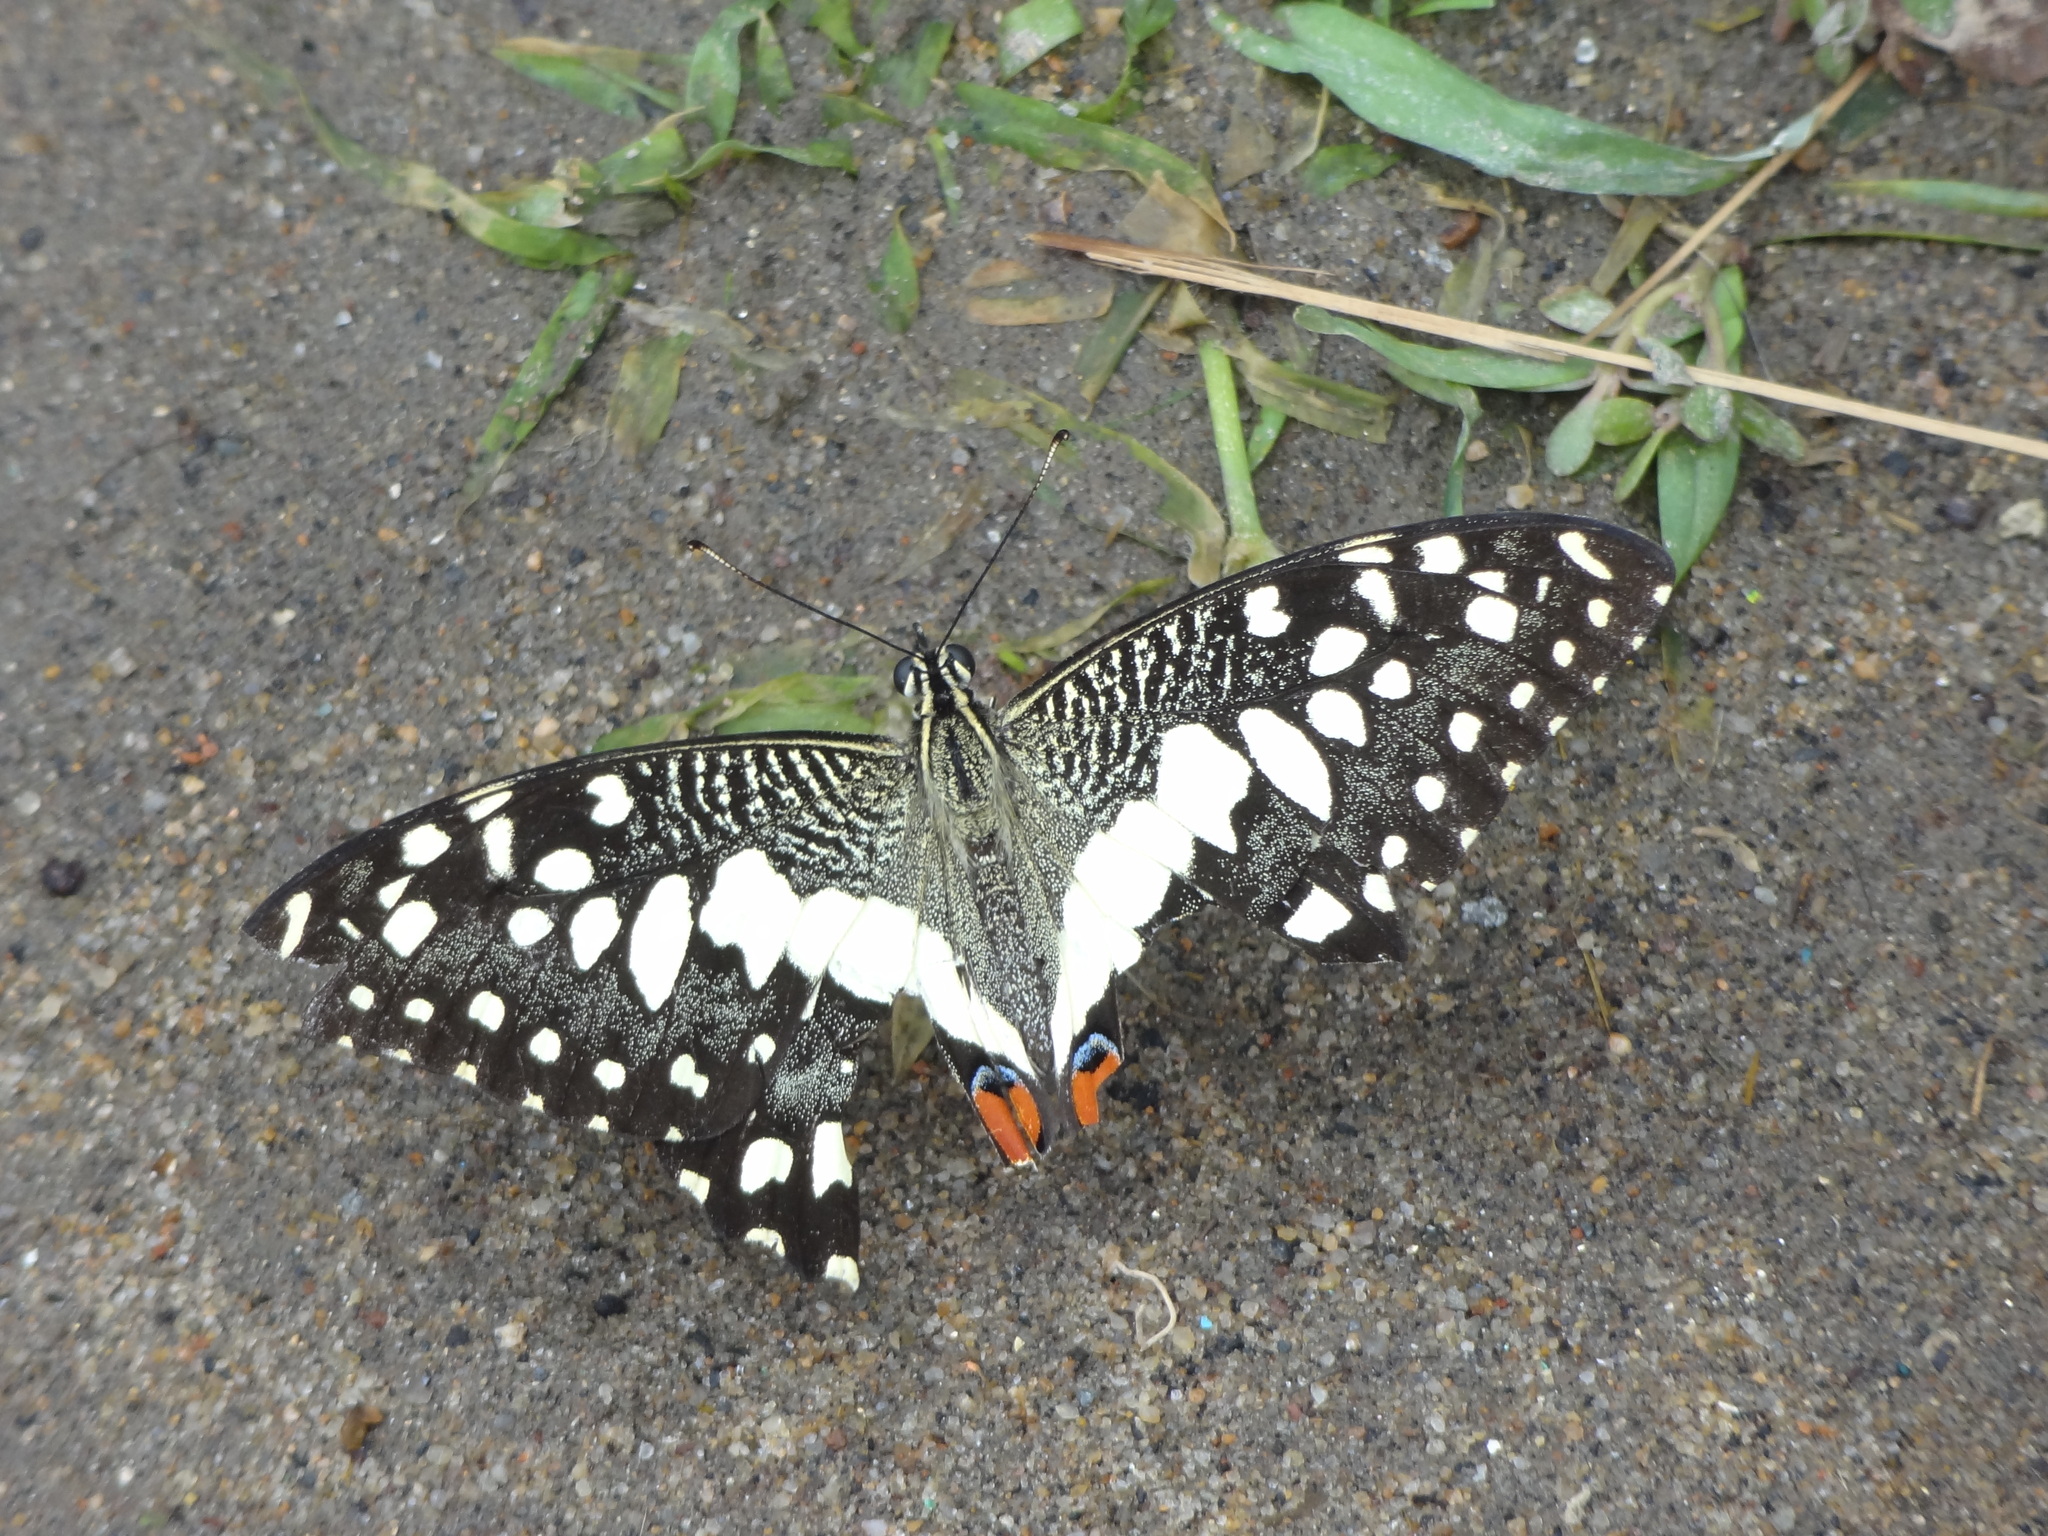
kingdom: Animalia
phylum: Arthropoda
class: Insecta
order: Lepidoptera
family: Papilionidae
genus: Papilio
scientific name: Papilio demoleus
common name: Lime butterfly
